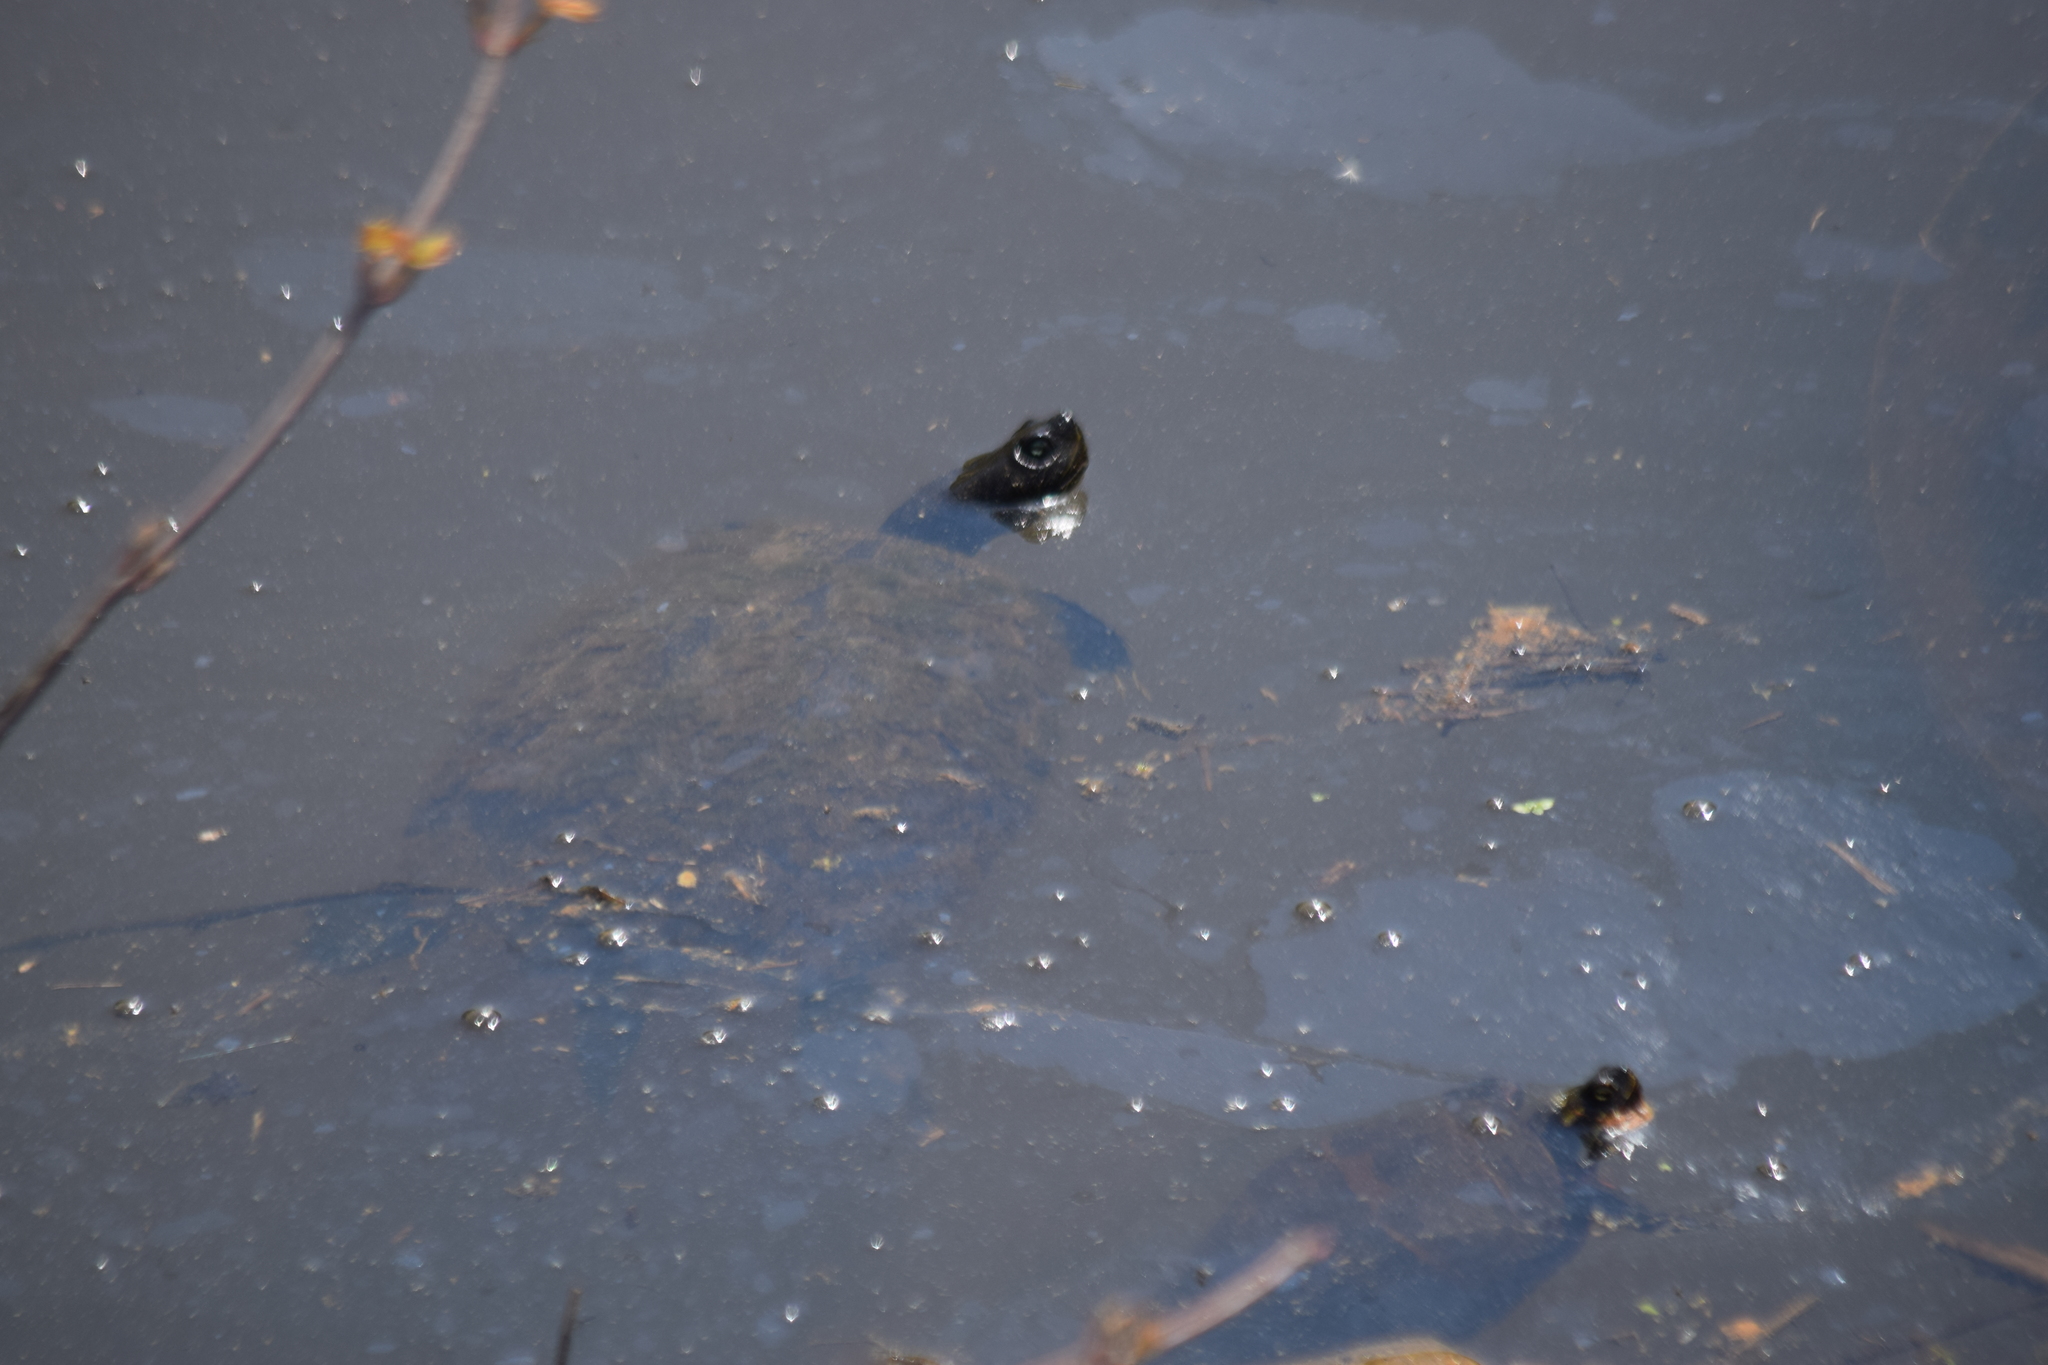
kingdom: Animalia
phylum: Chordata
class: Testudines
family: Emydidae
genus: Pseudemys
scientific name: Pseudemys rubriventris
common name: American red-bellied turtle
